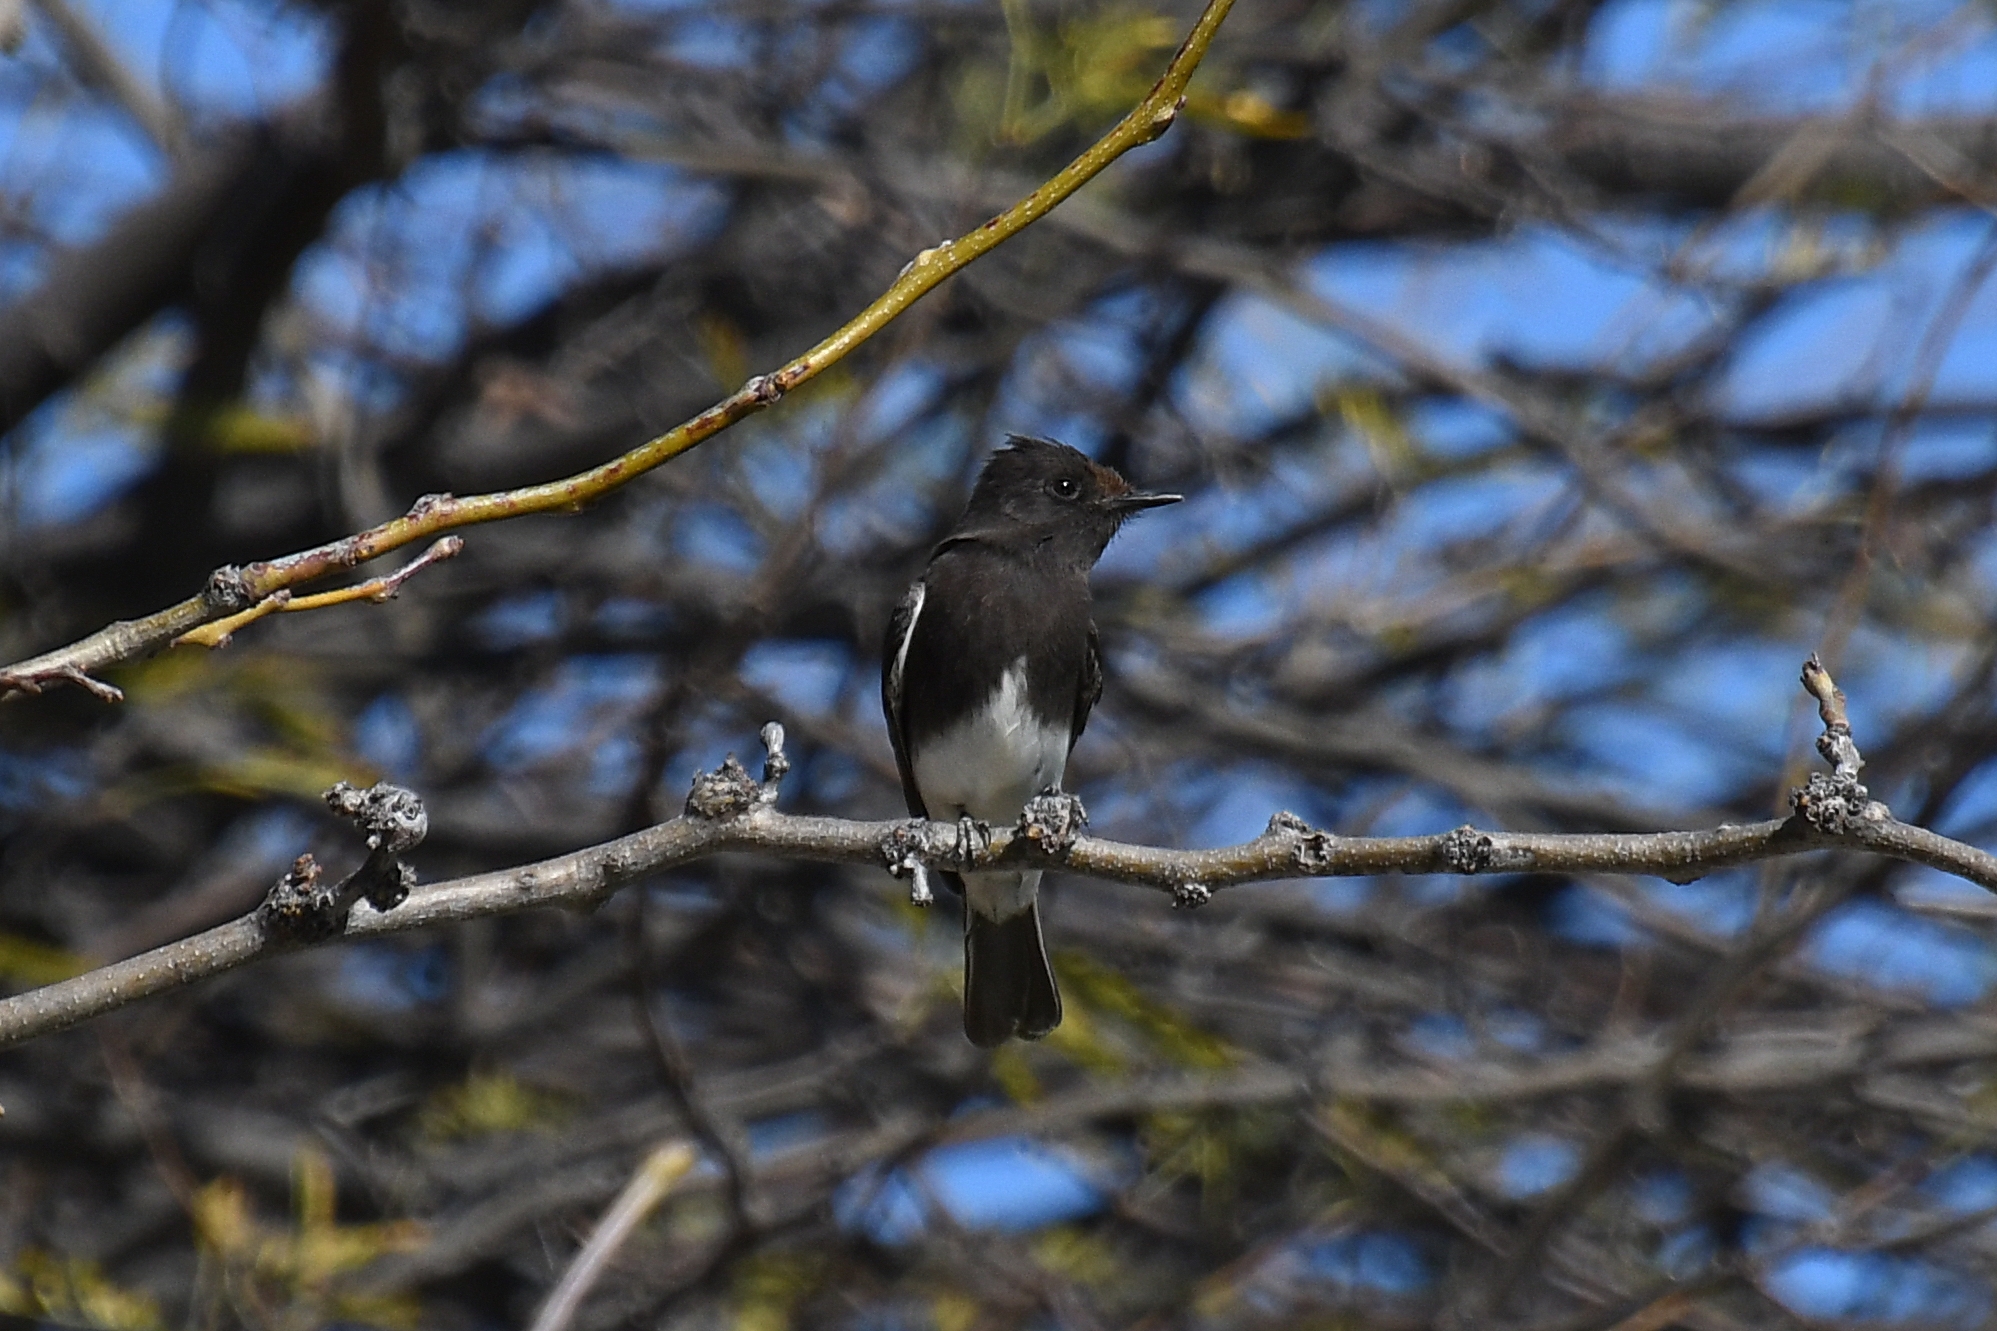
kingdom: Animalia
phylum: Chordata
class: Aves
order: Passeriformes
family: Tyrannidae
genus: Sayornis
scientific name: Sayornis nigricans
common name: Black phoebe
